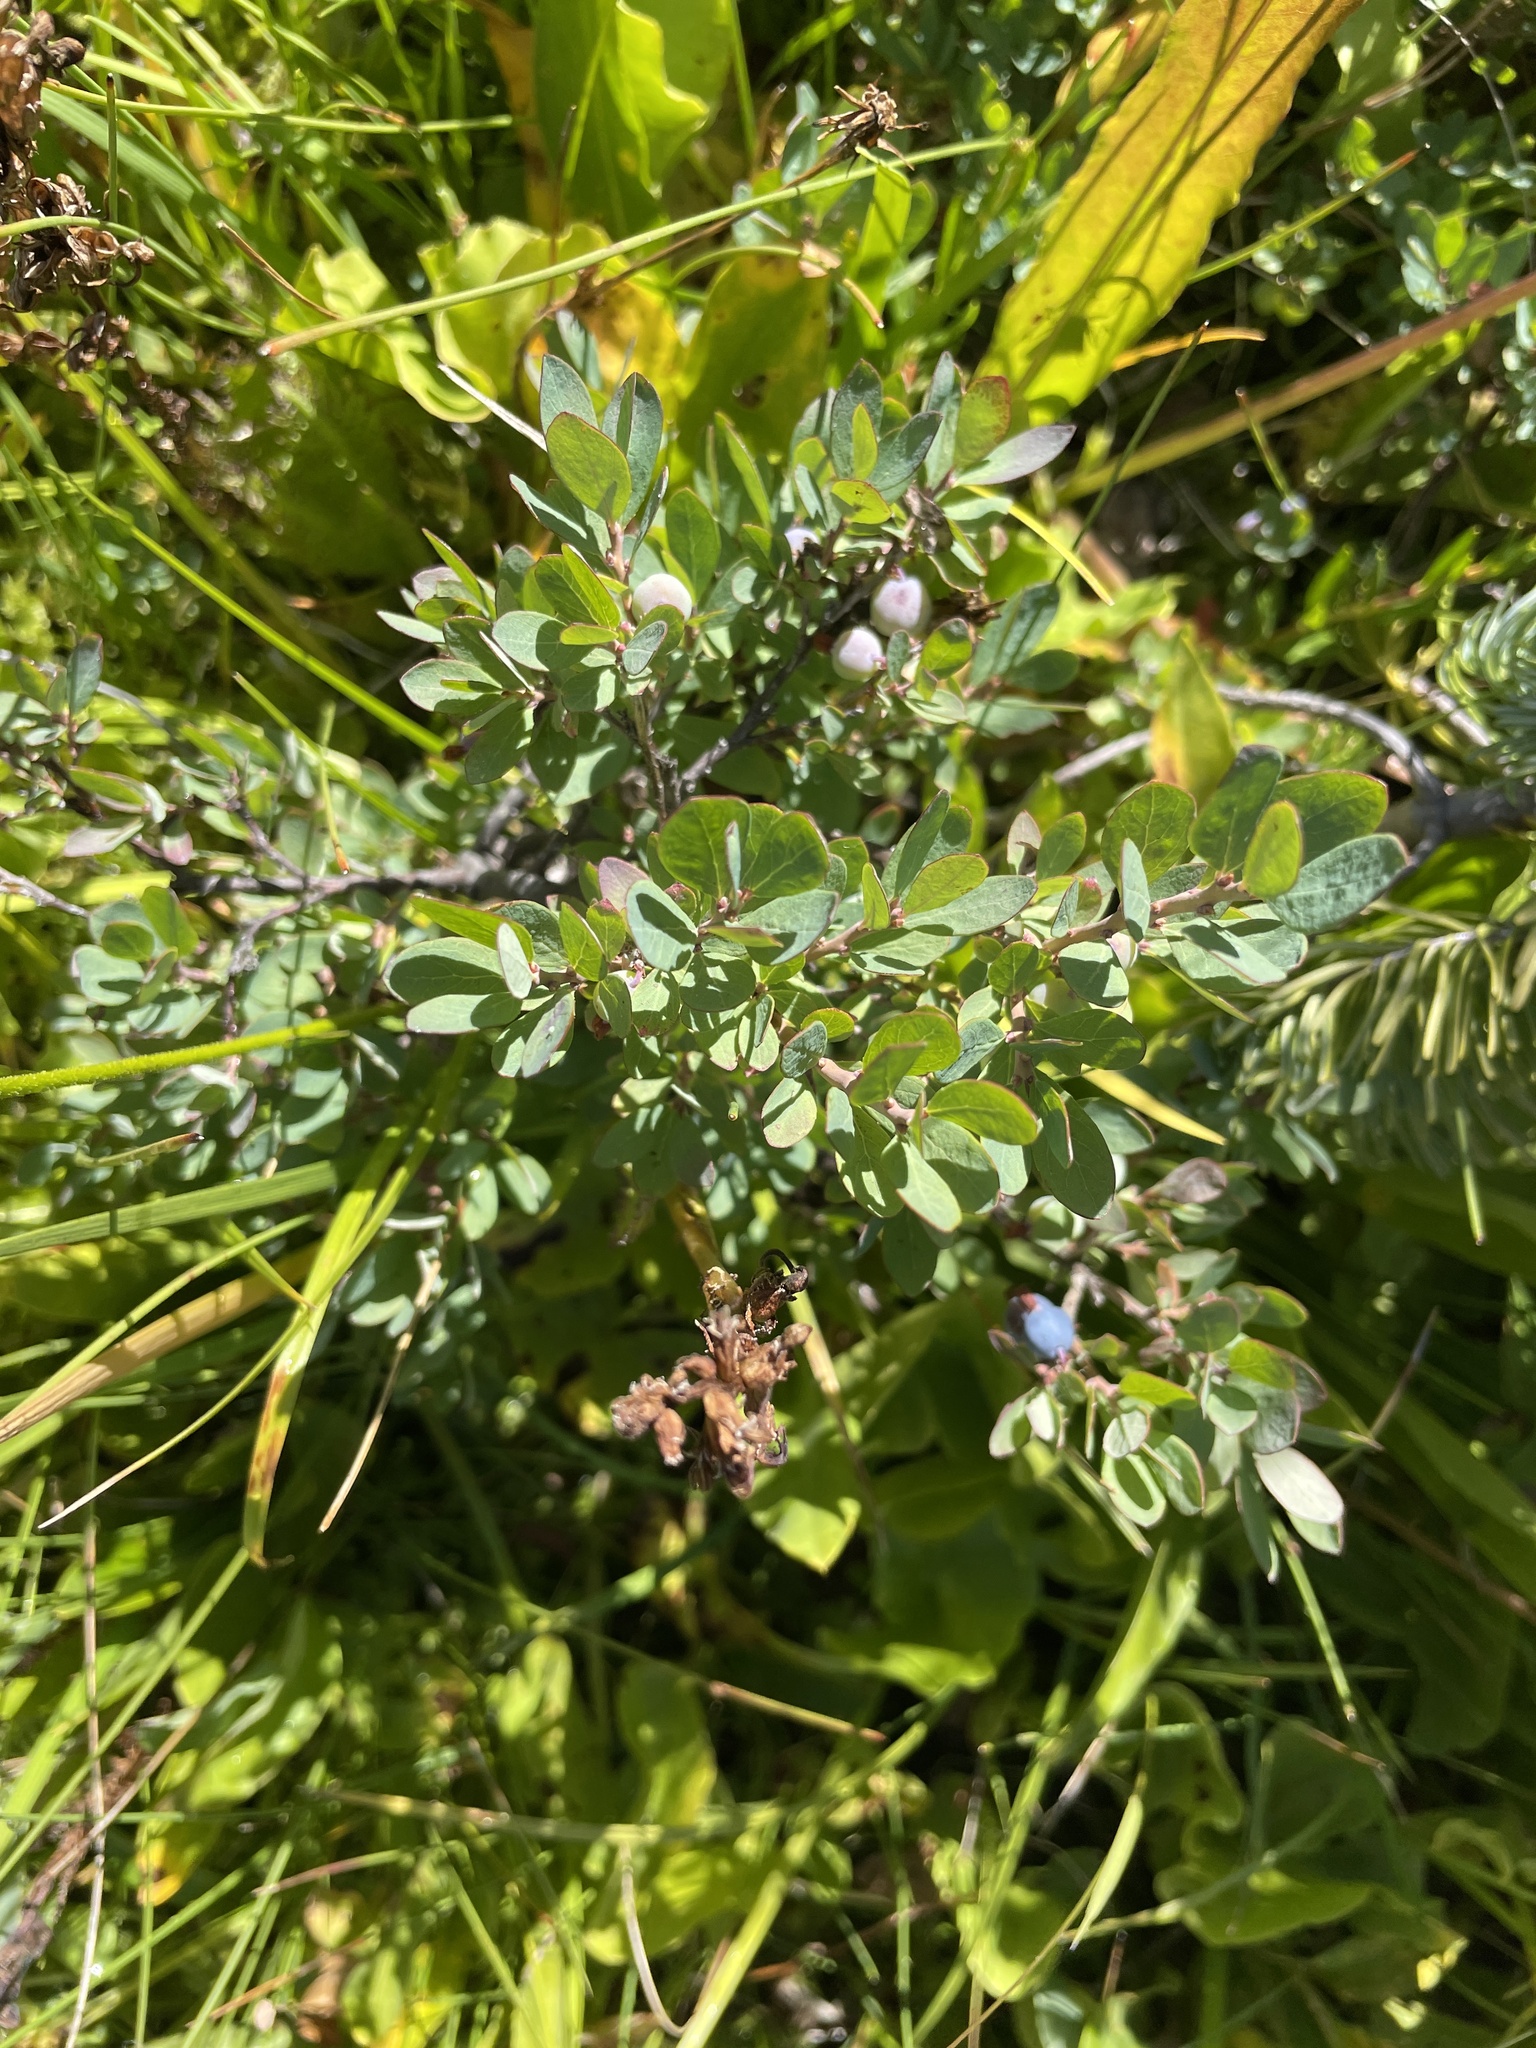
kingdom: Plantae
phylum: Tracheophyta
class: Magnoliopsida
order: Ericales
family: Ericaceae
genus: Vaccinium
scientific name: Vaccinium uliginosum
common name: Bog bilberry
